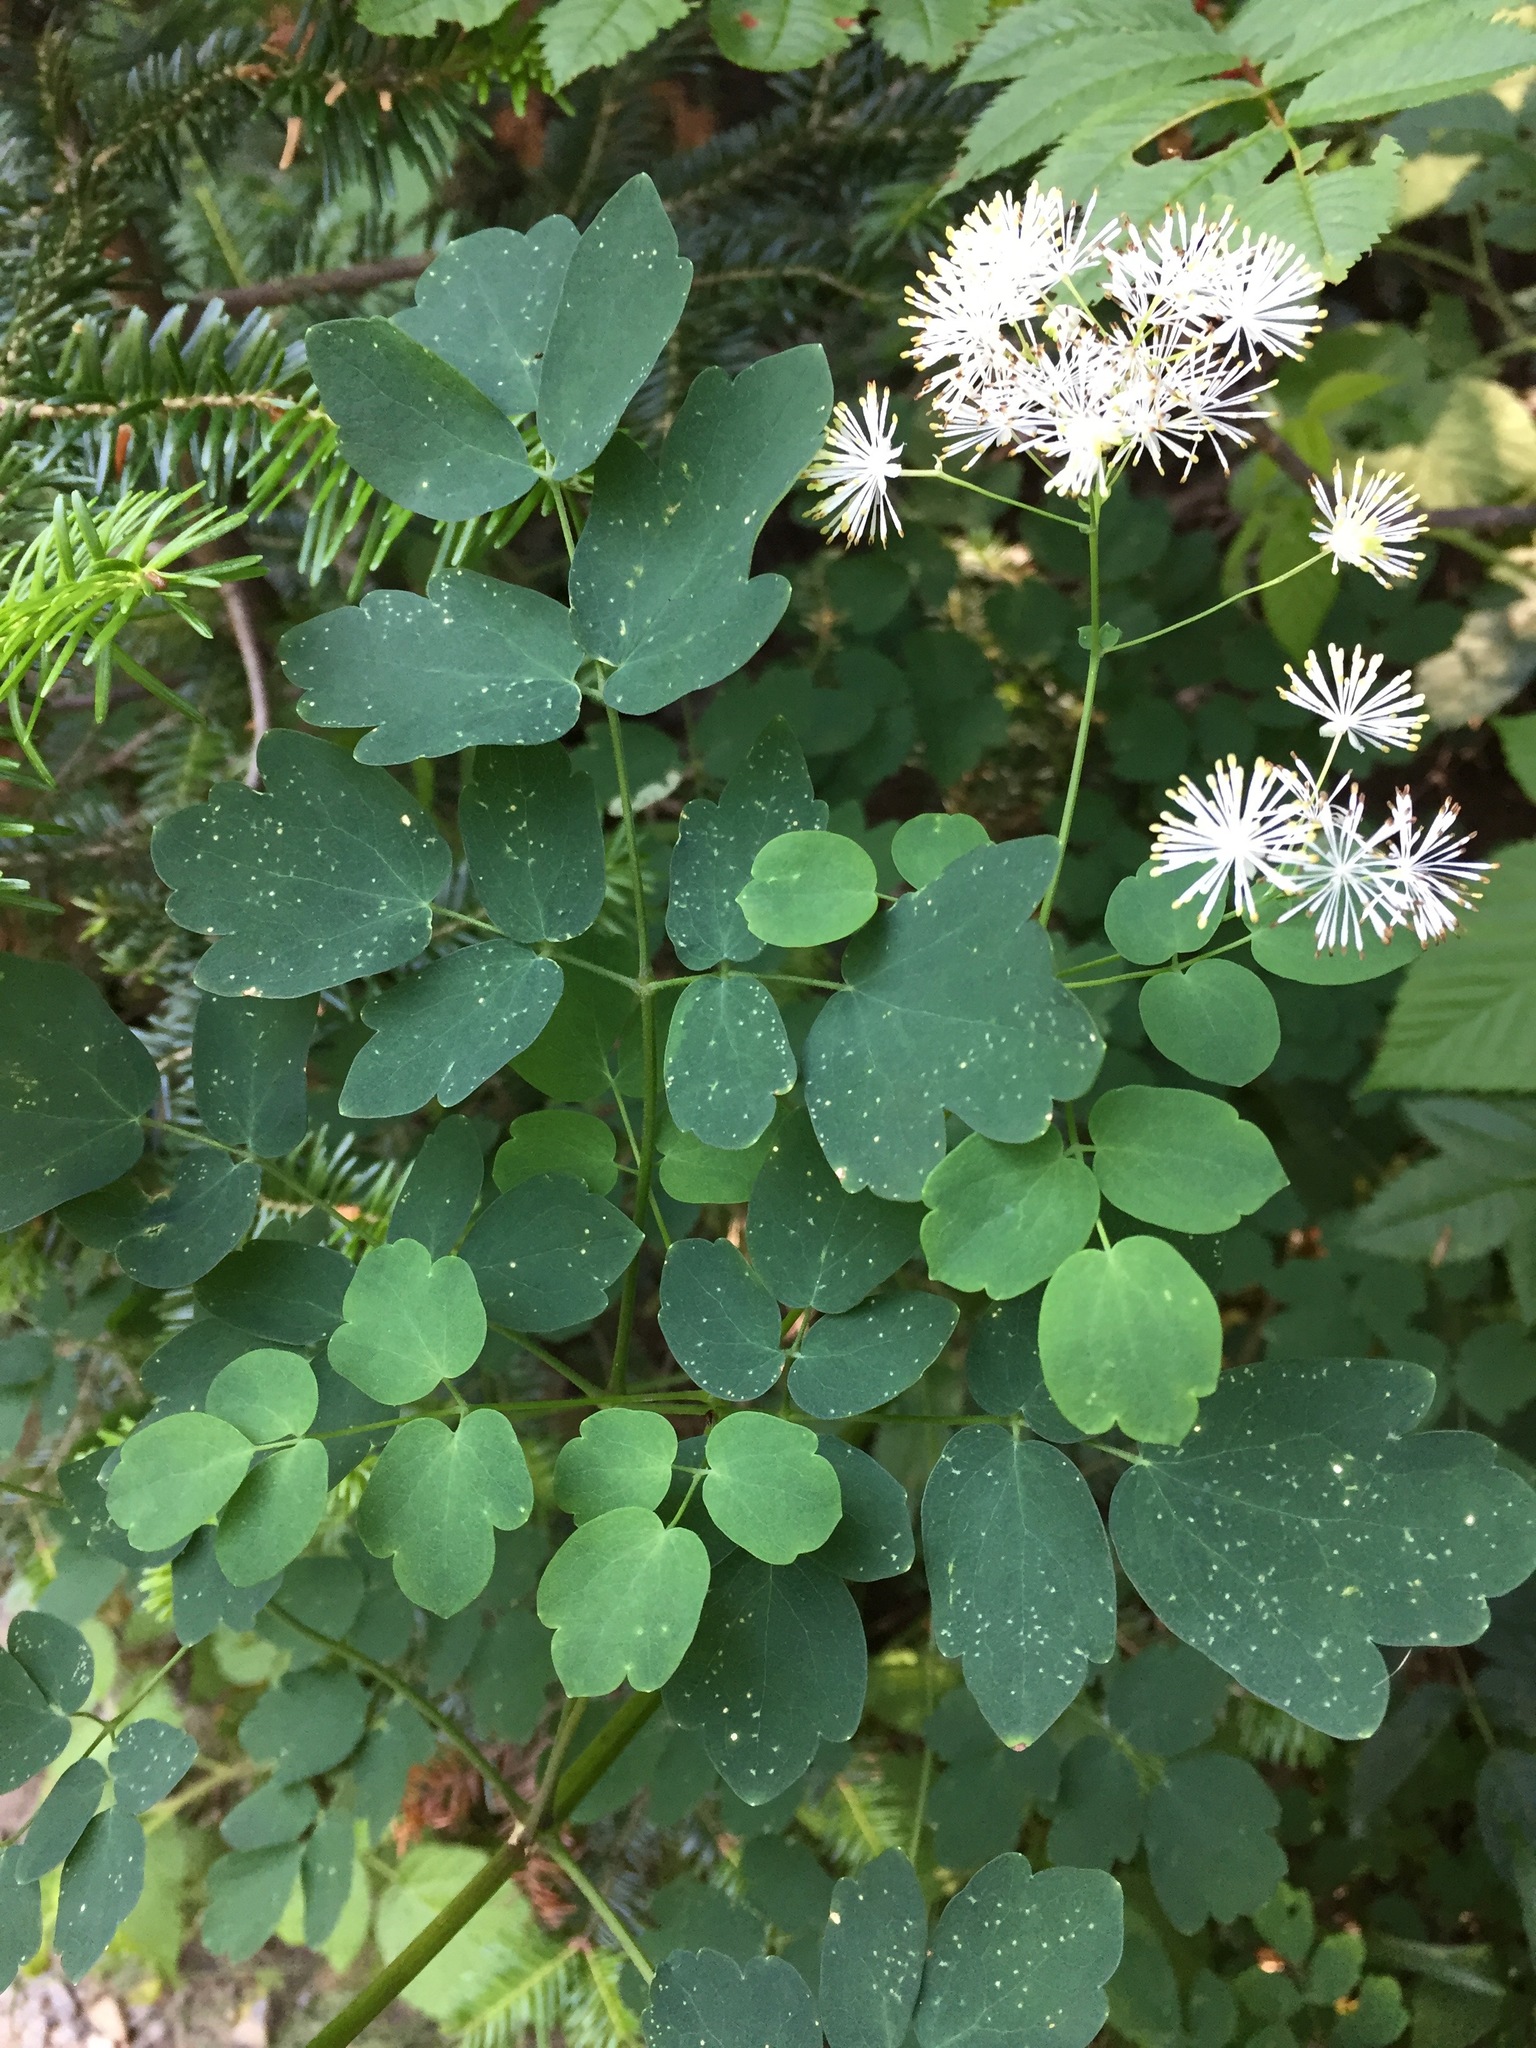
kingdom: Plantae
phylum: Tracheophyta
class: Magnoliopsida
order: Ranunculales
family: Ranunculaceae
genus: Thalictrum
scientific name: Thalictrum pubescens
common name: King-of-the-meadow
